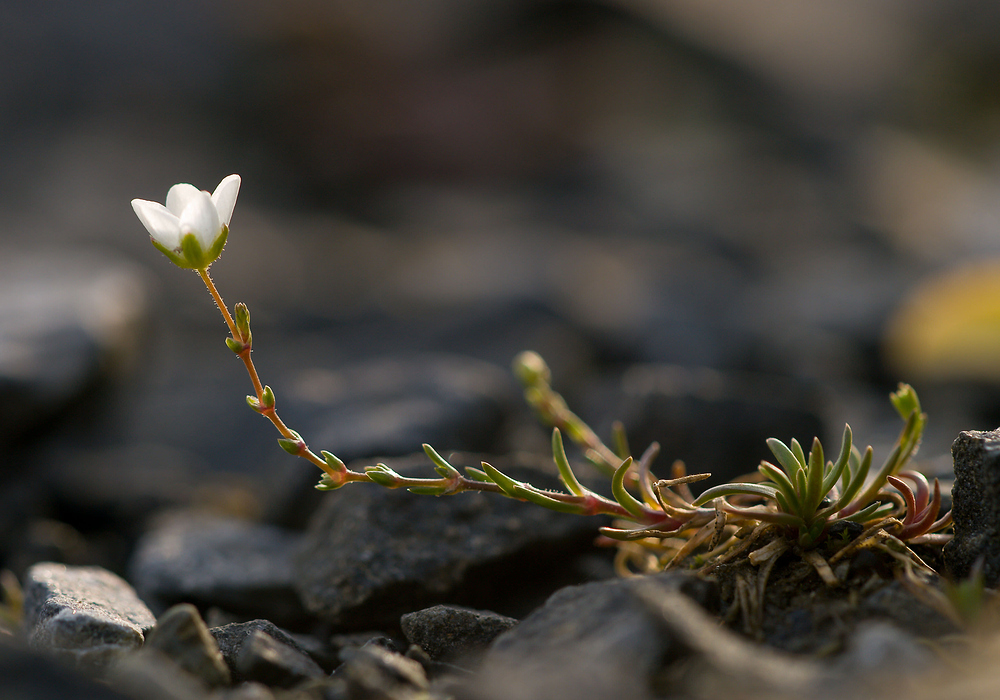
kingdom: Plantae
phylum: Tracheophyta
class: Magnoliopsida
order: Caryophyllales
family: Caryophyllaceae
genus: Sagina
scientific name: Sagina nodosa
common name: Knotted pearlwort
